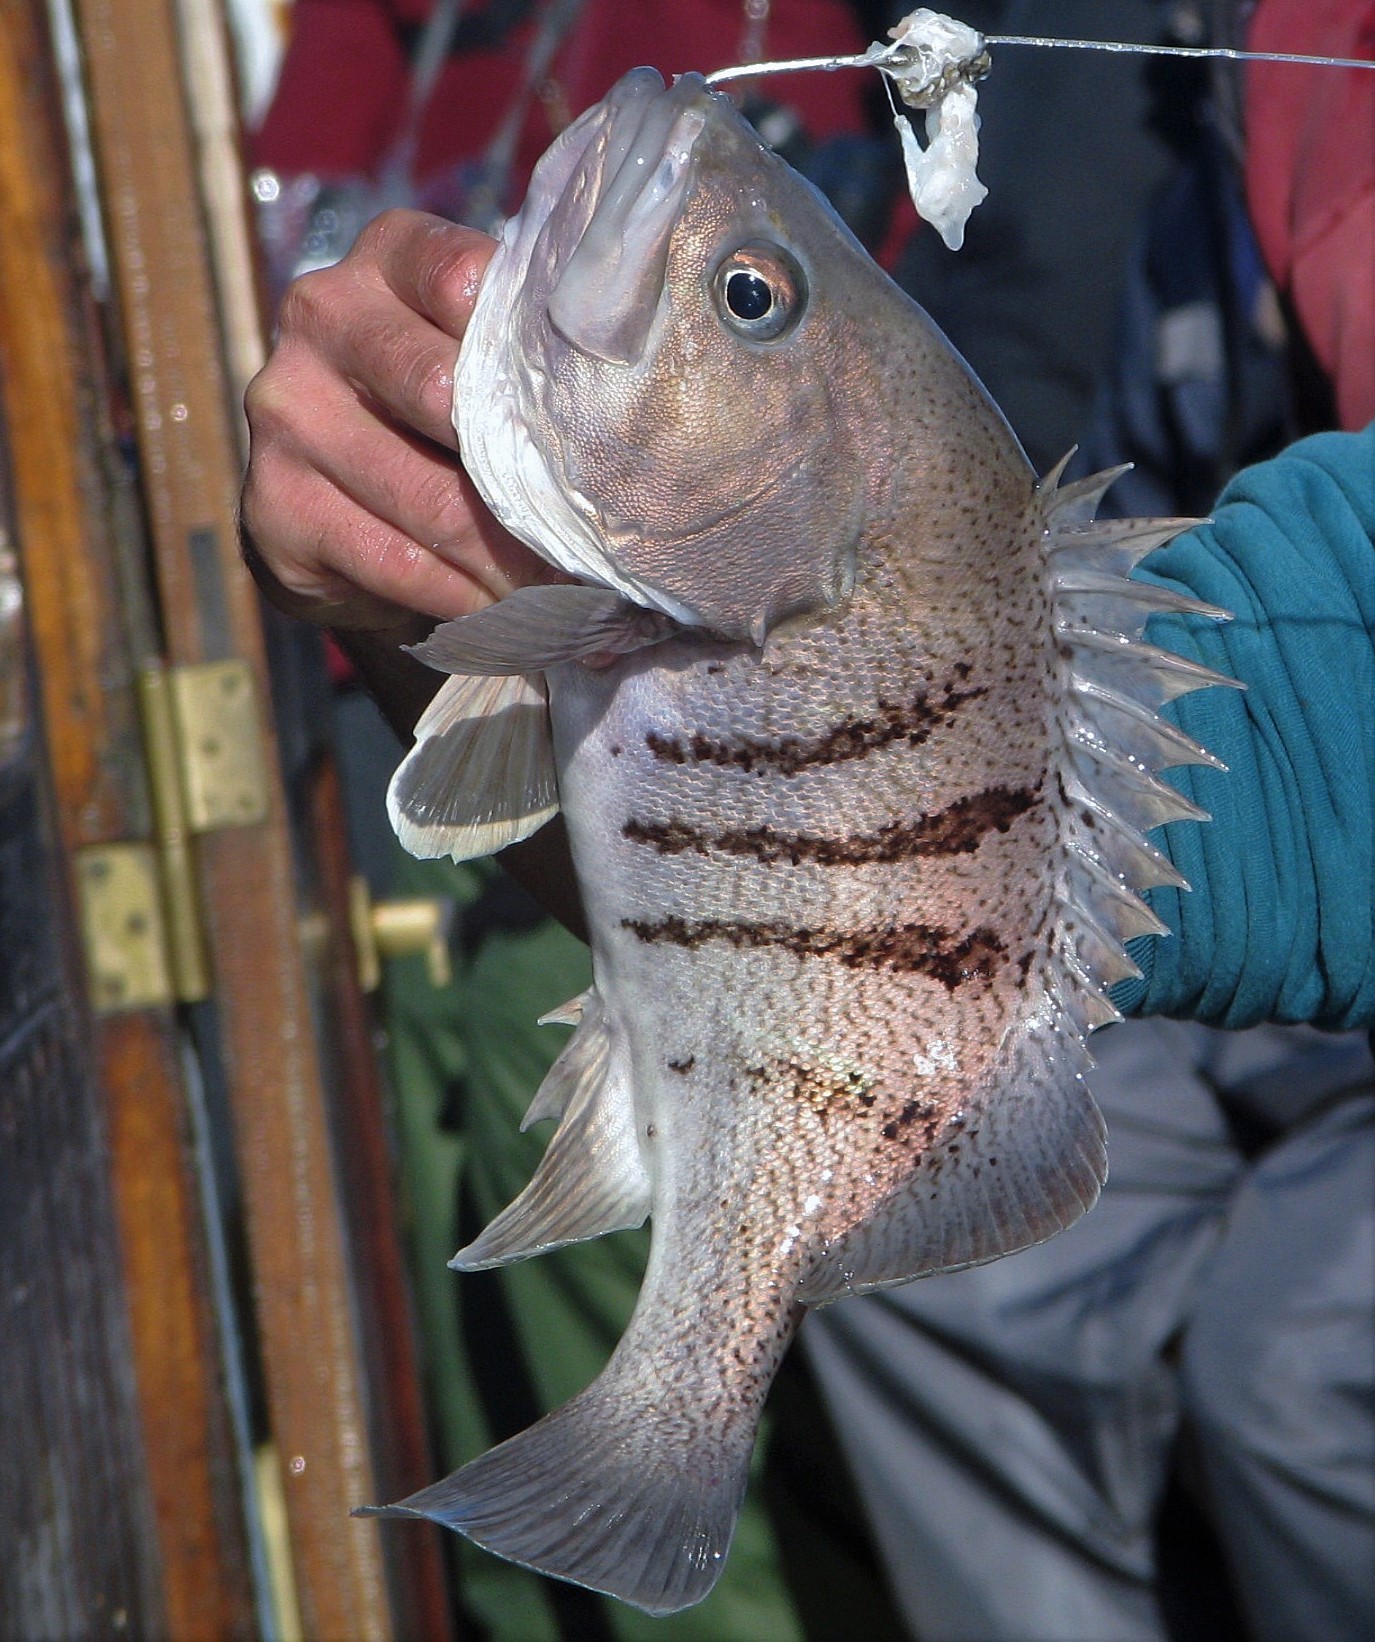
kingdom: Animalia
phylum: Chordata
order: Perciformes
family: Serranidae
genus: Acanthistius
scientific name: Acanthistius patachonicus
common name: Patagonian grouper
